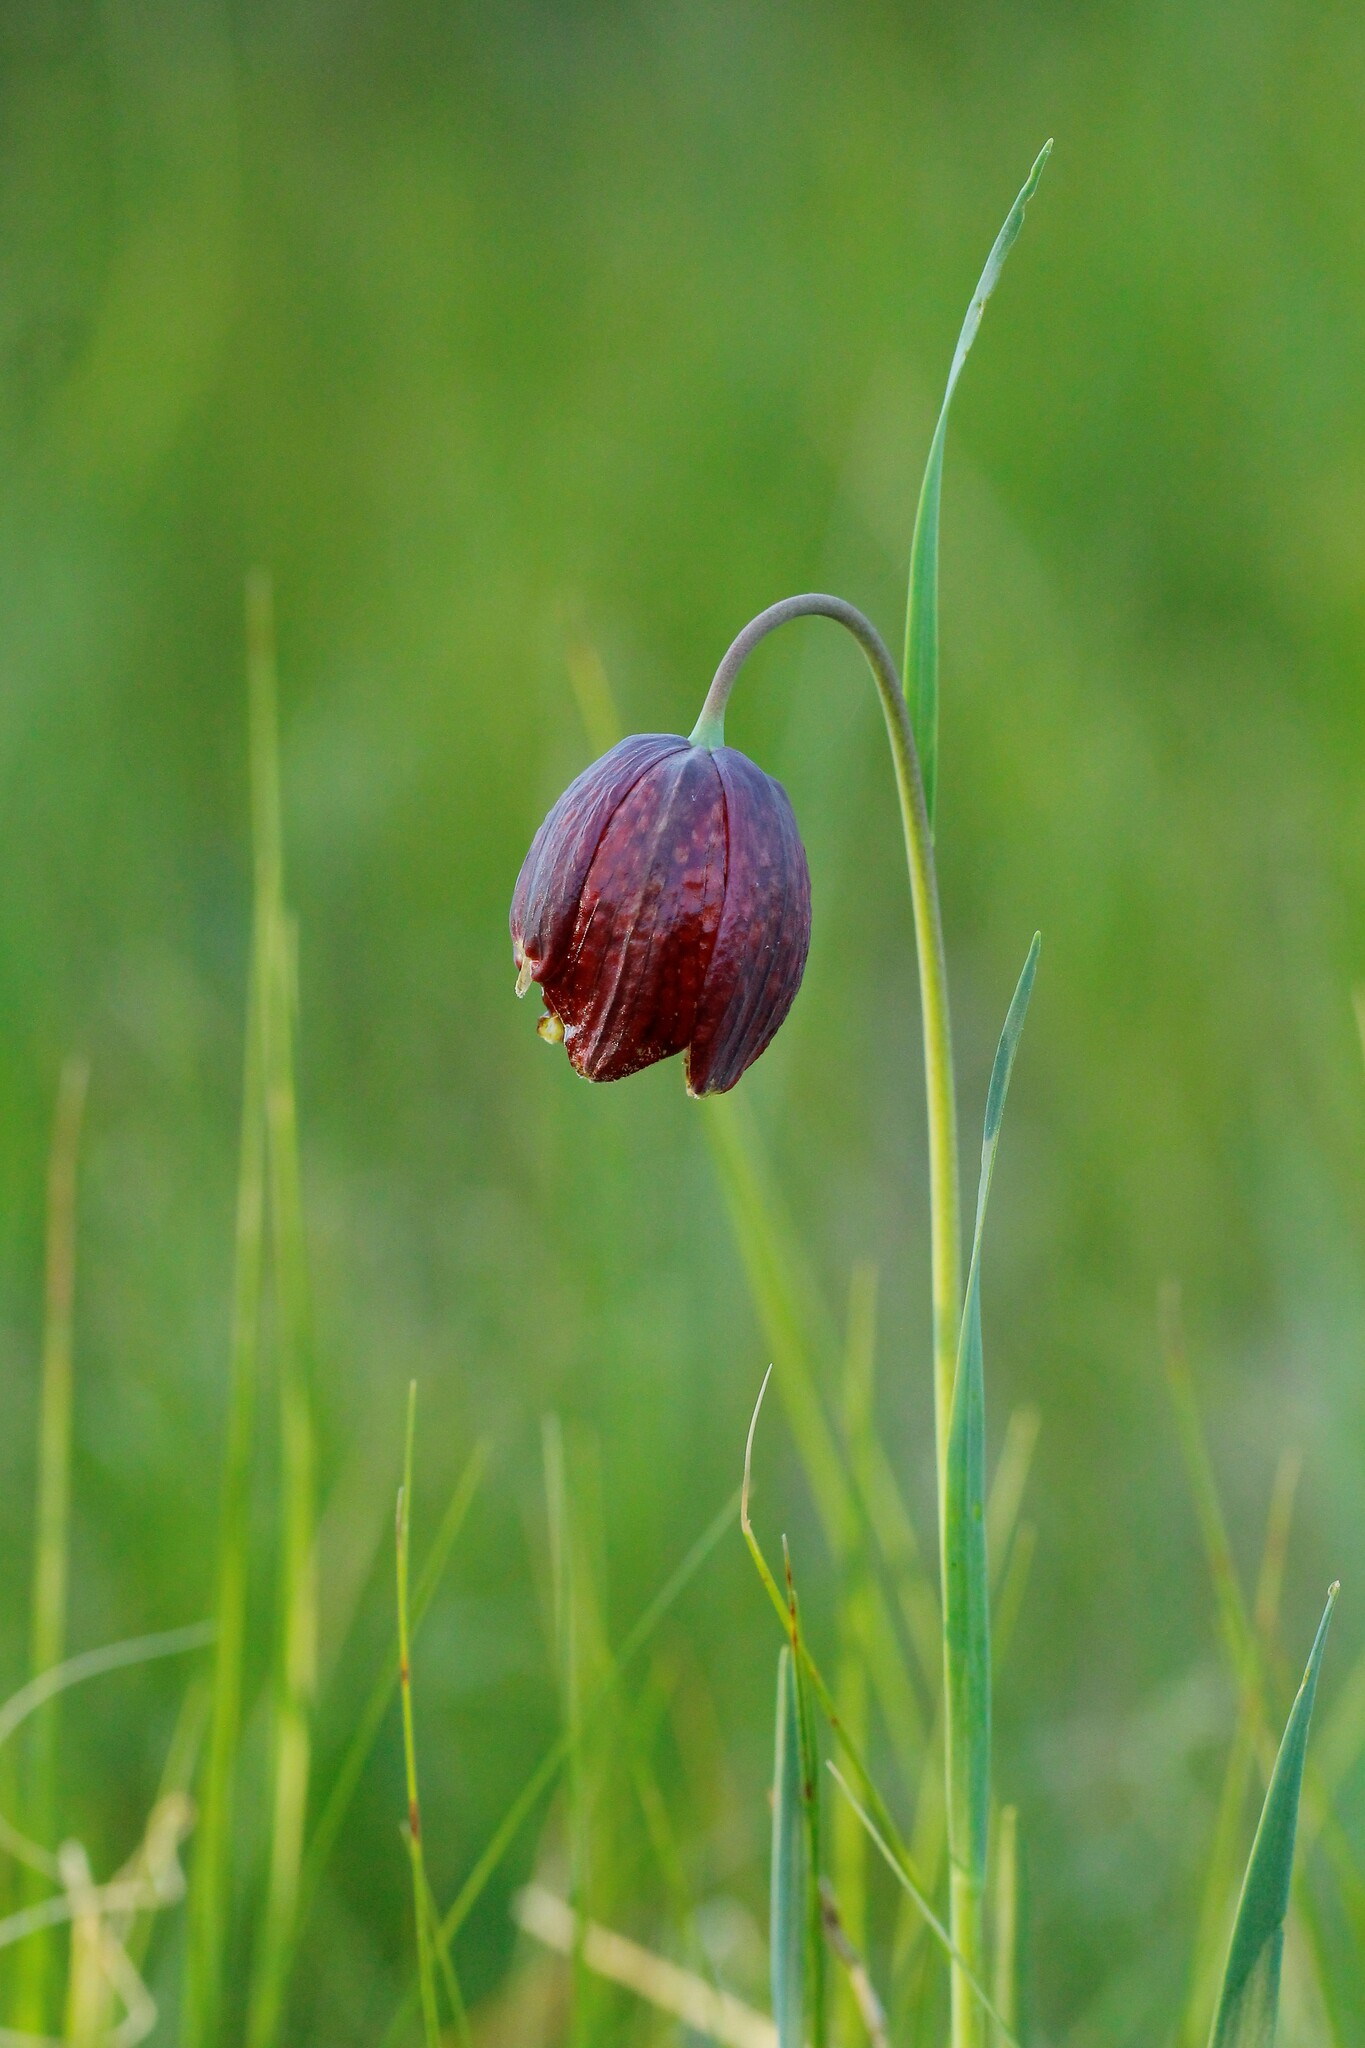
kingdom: Plantae
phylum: Tracheophyta
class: Liliopsida
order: Liliales
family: Liliaceae
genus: Fritillaria
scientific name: Fritillaria meleagroides
